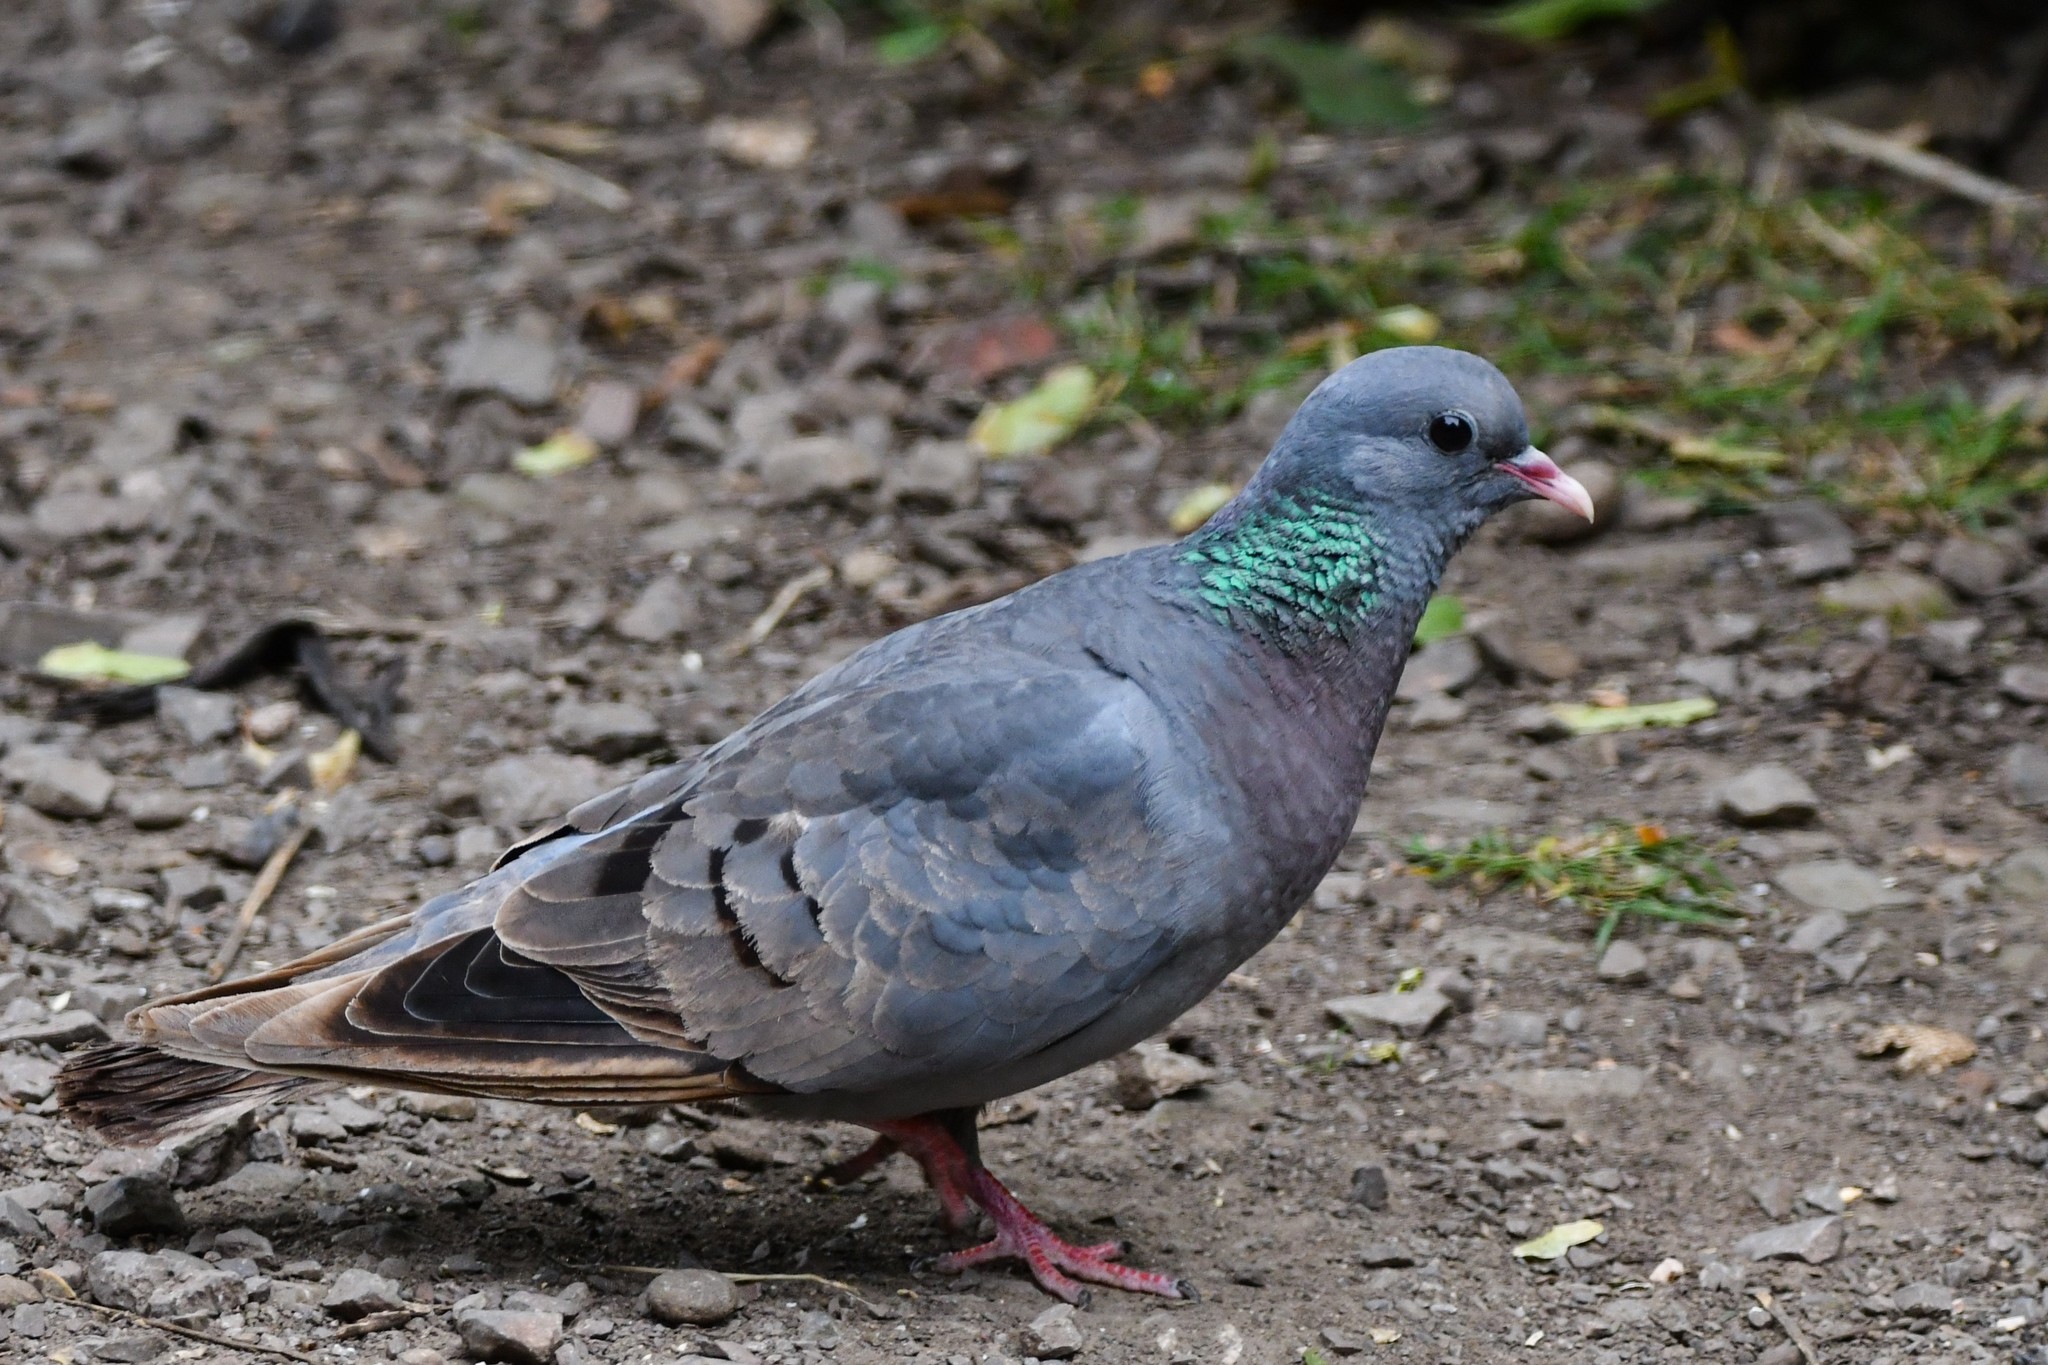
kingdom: Animalia
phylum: Chordata
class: Aves
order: Columbiformes
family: Columbidae
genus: Columba
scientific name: Columba oenas
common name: Stock dove
